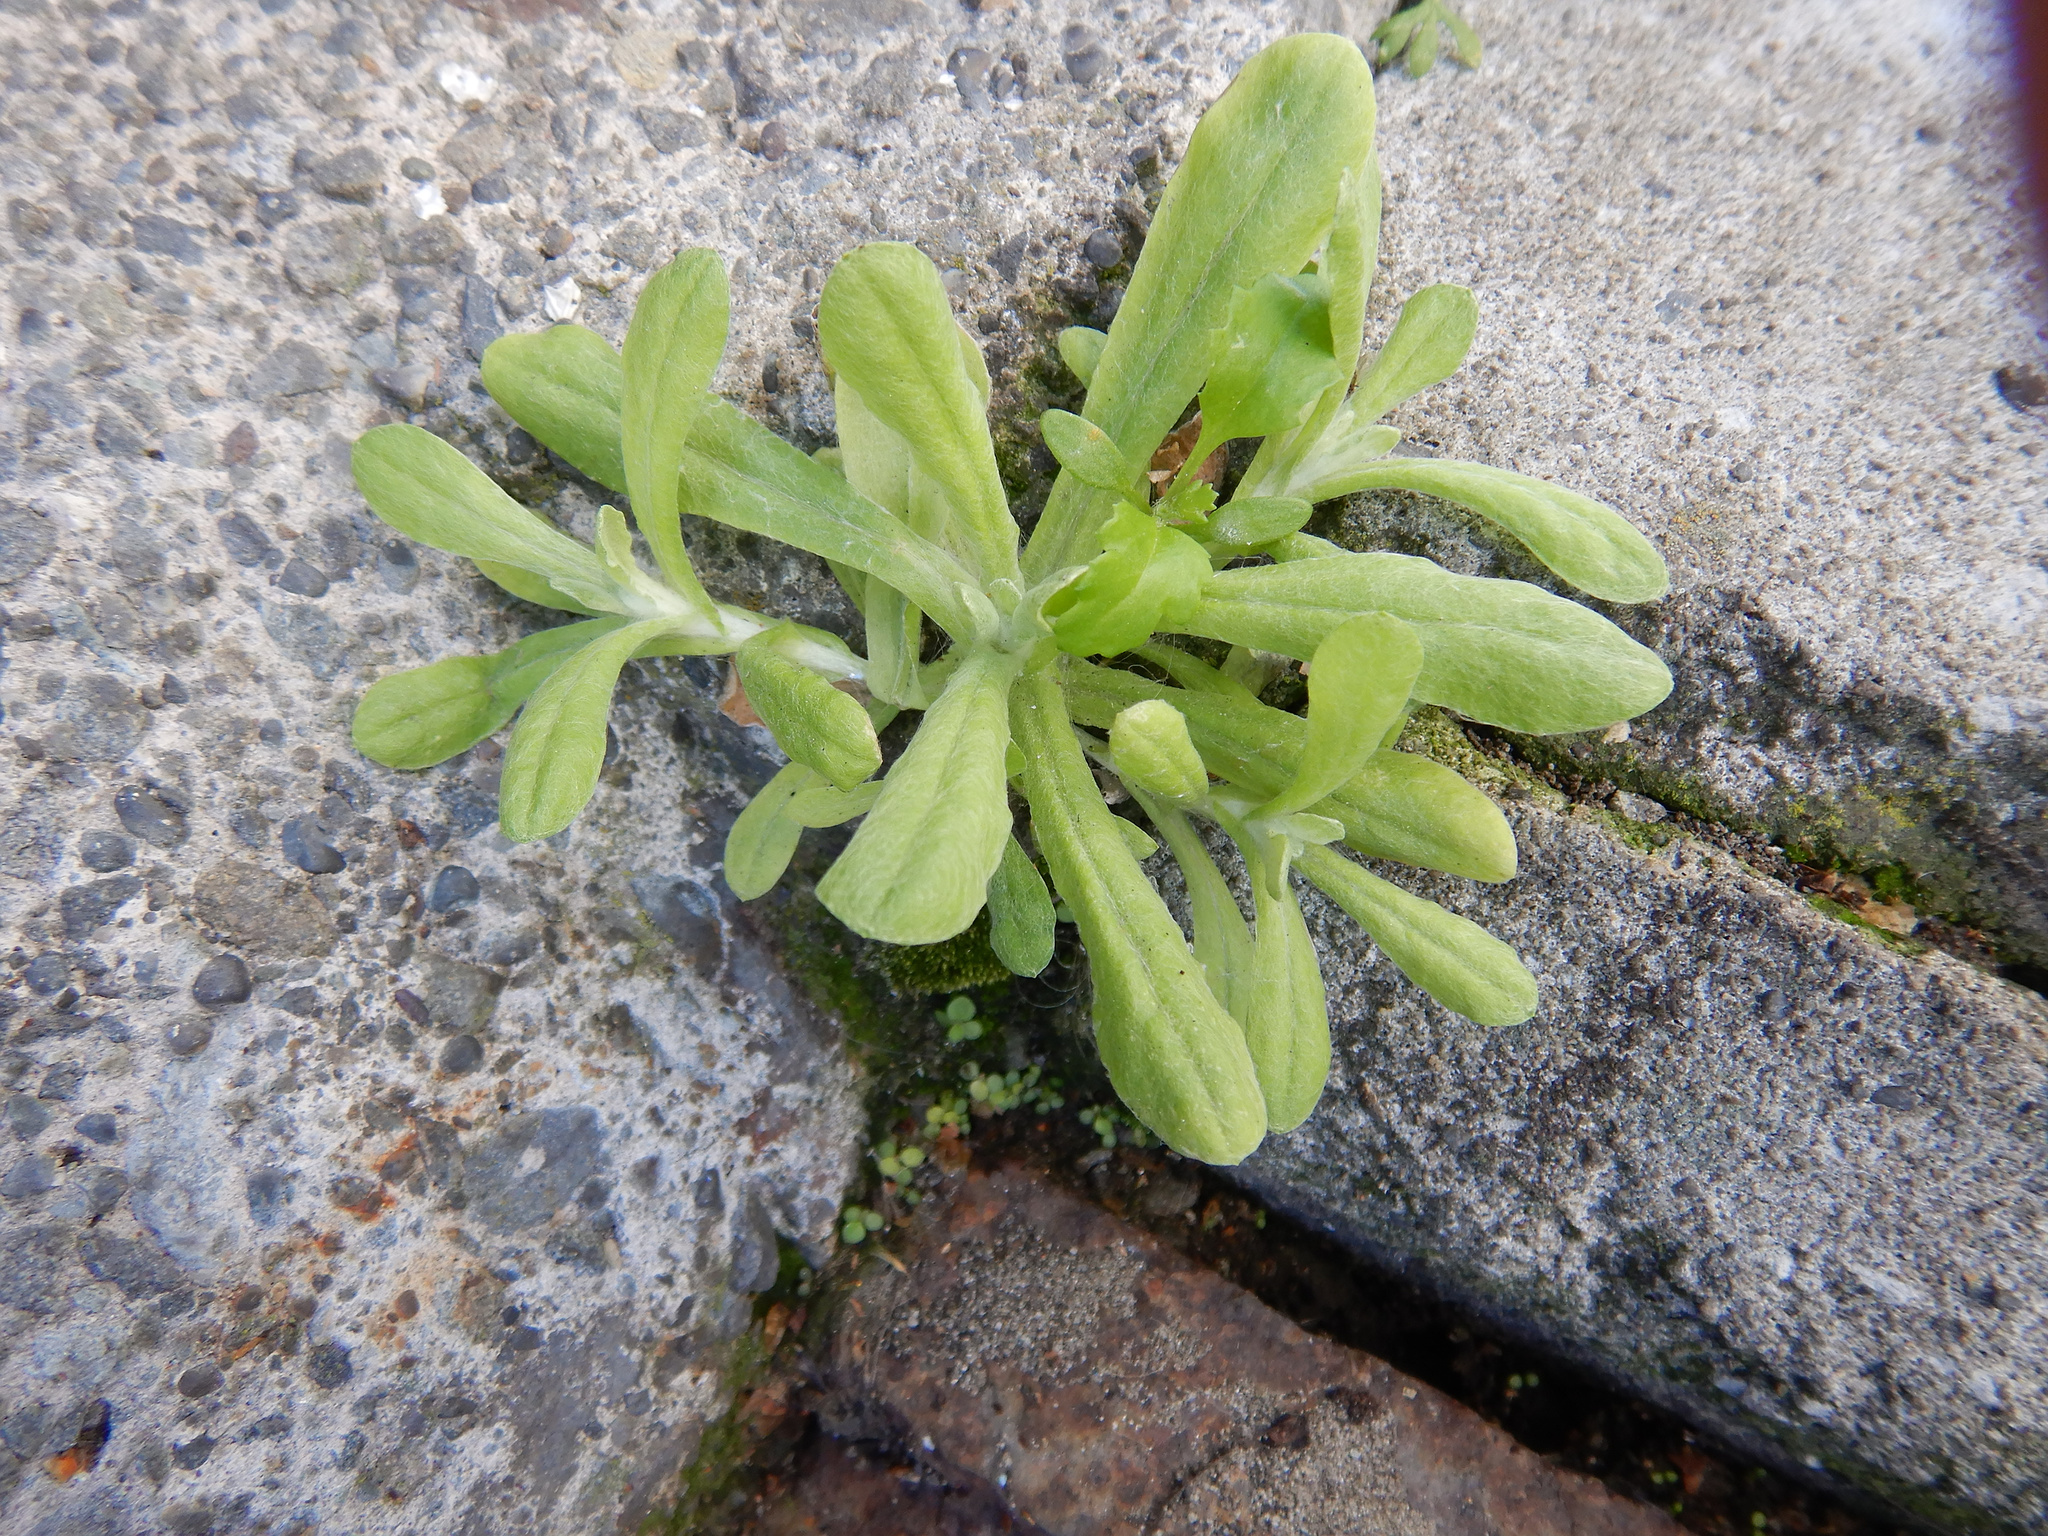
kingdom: Plantae
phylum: Tracheophyta
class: Magnoliopsida
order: Asterales
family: Asteraceae
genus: Helichrysum
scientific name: Helichrysum luteoalbum
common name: Daisy
